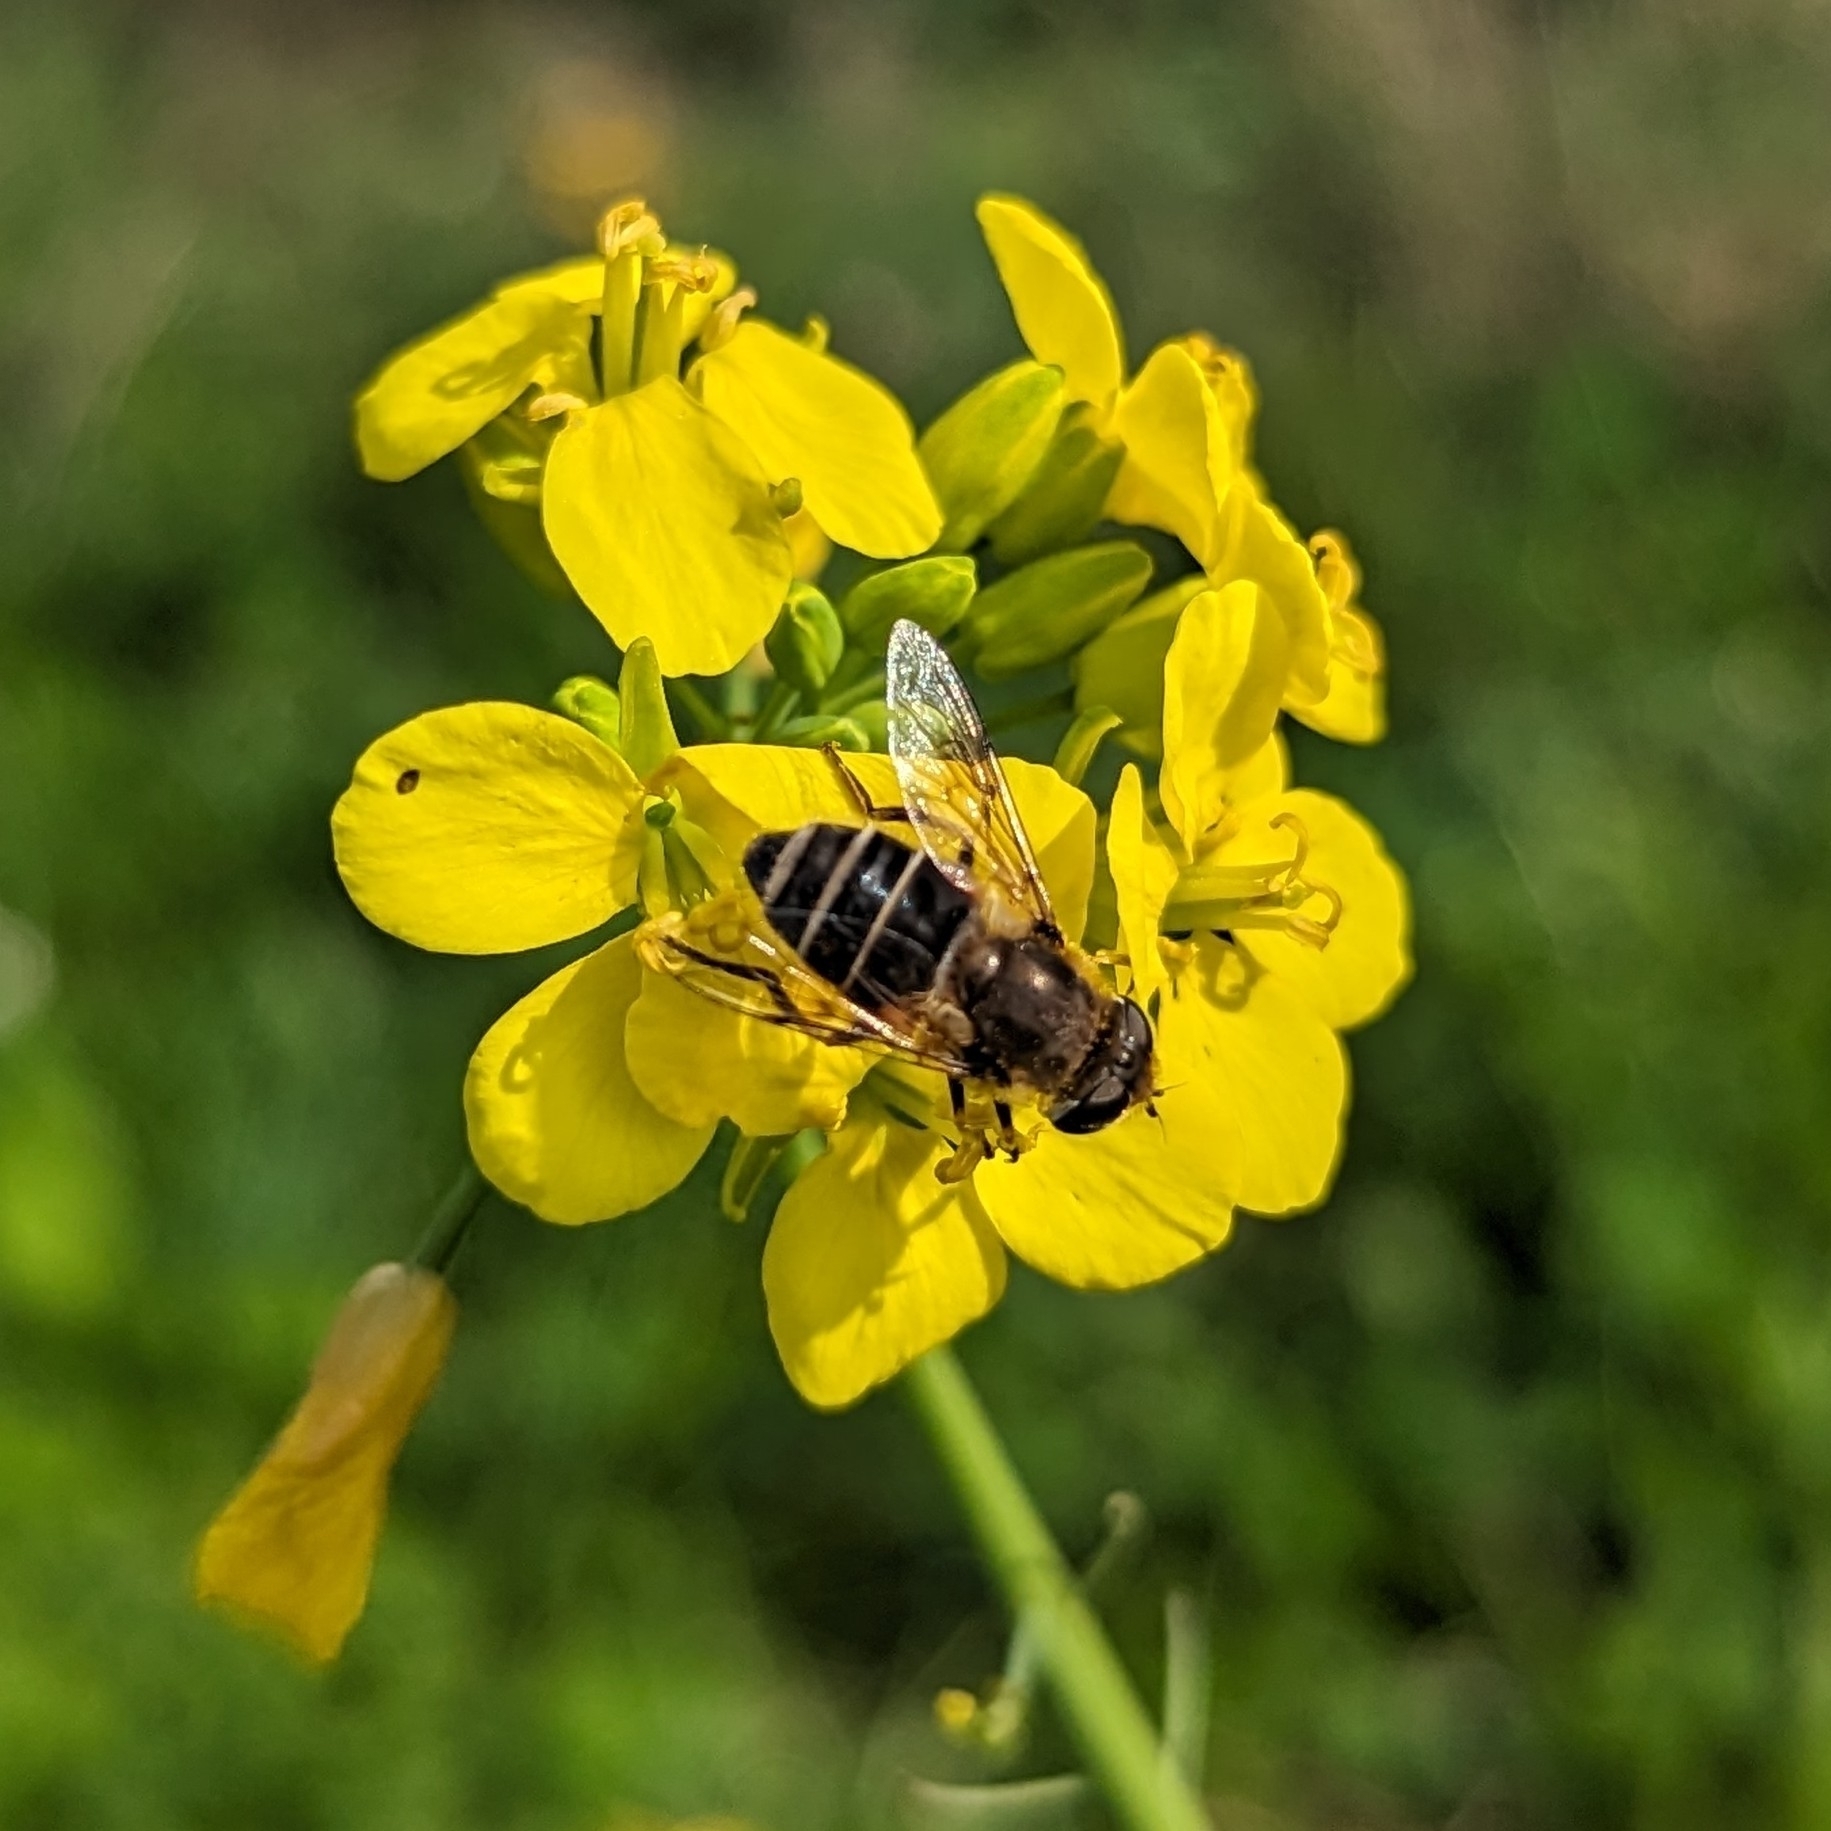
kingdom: Animalia
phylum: Arthropoda
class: Insecta
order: Diptera
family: Syrphidae
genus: Eristalis
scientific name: Eristalis arbustorum
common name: Hover fly
